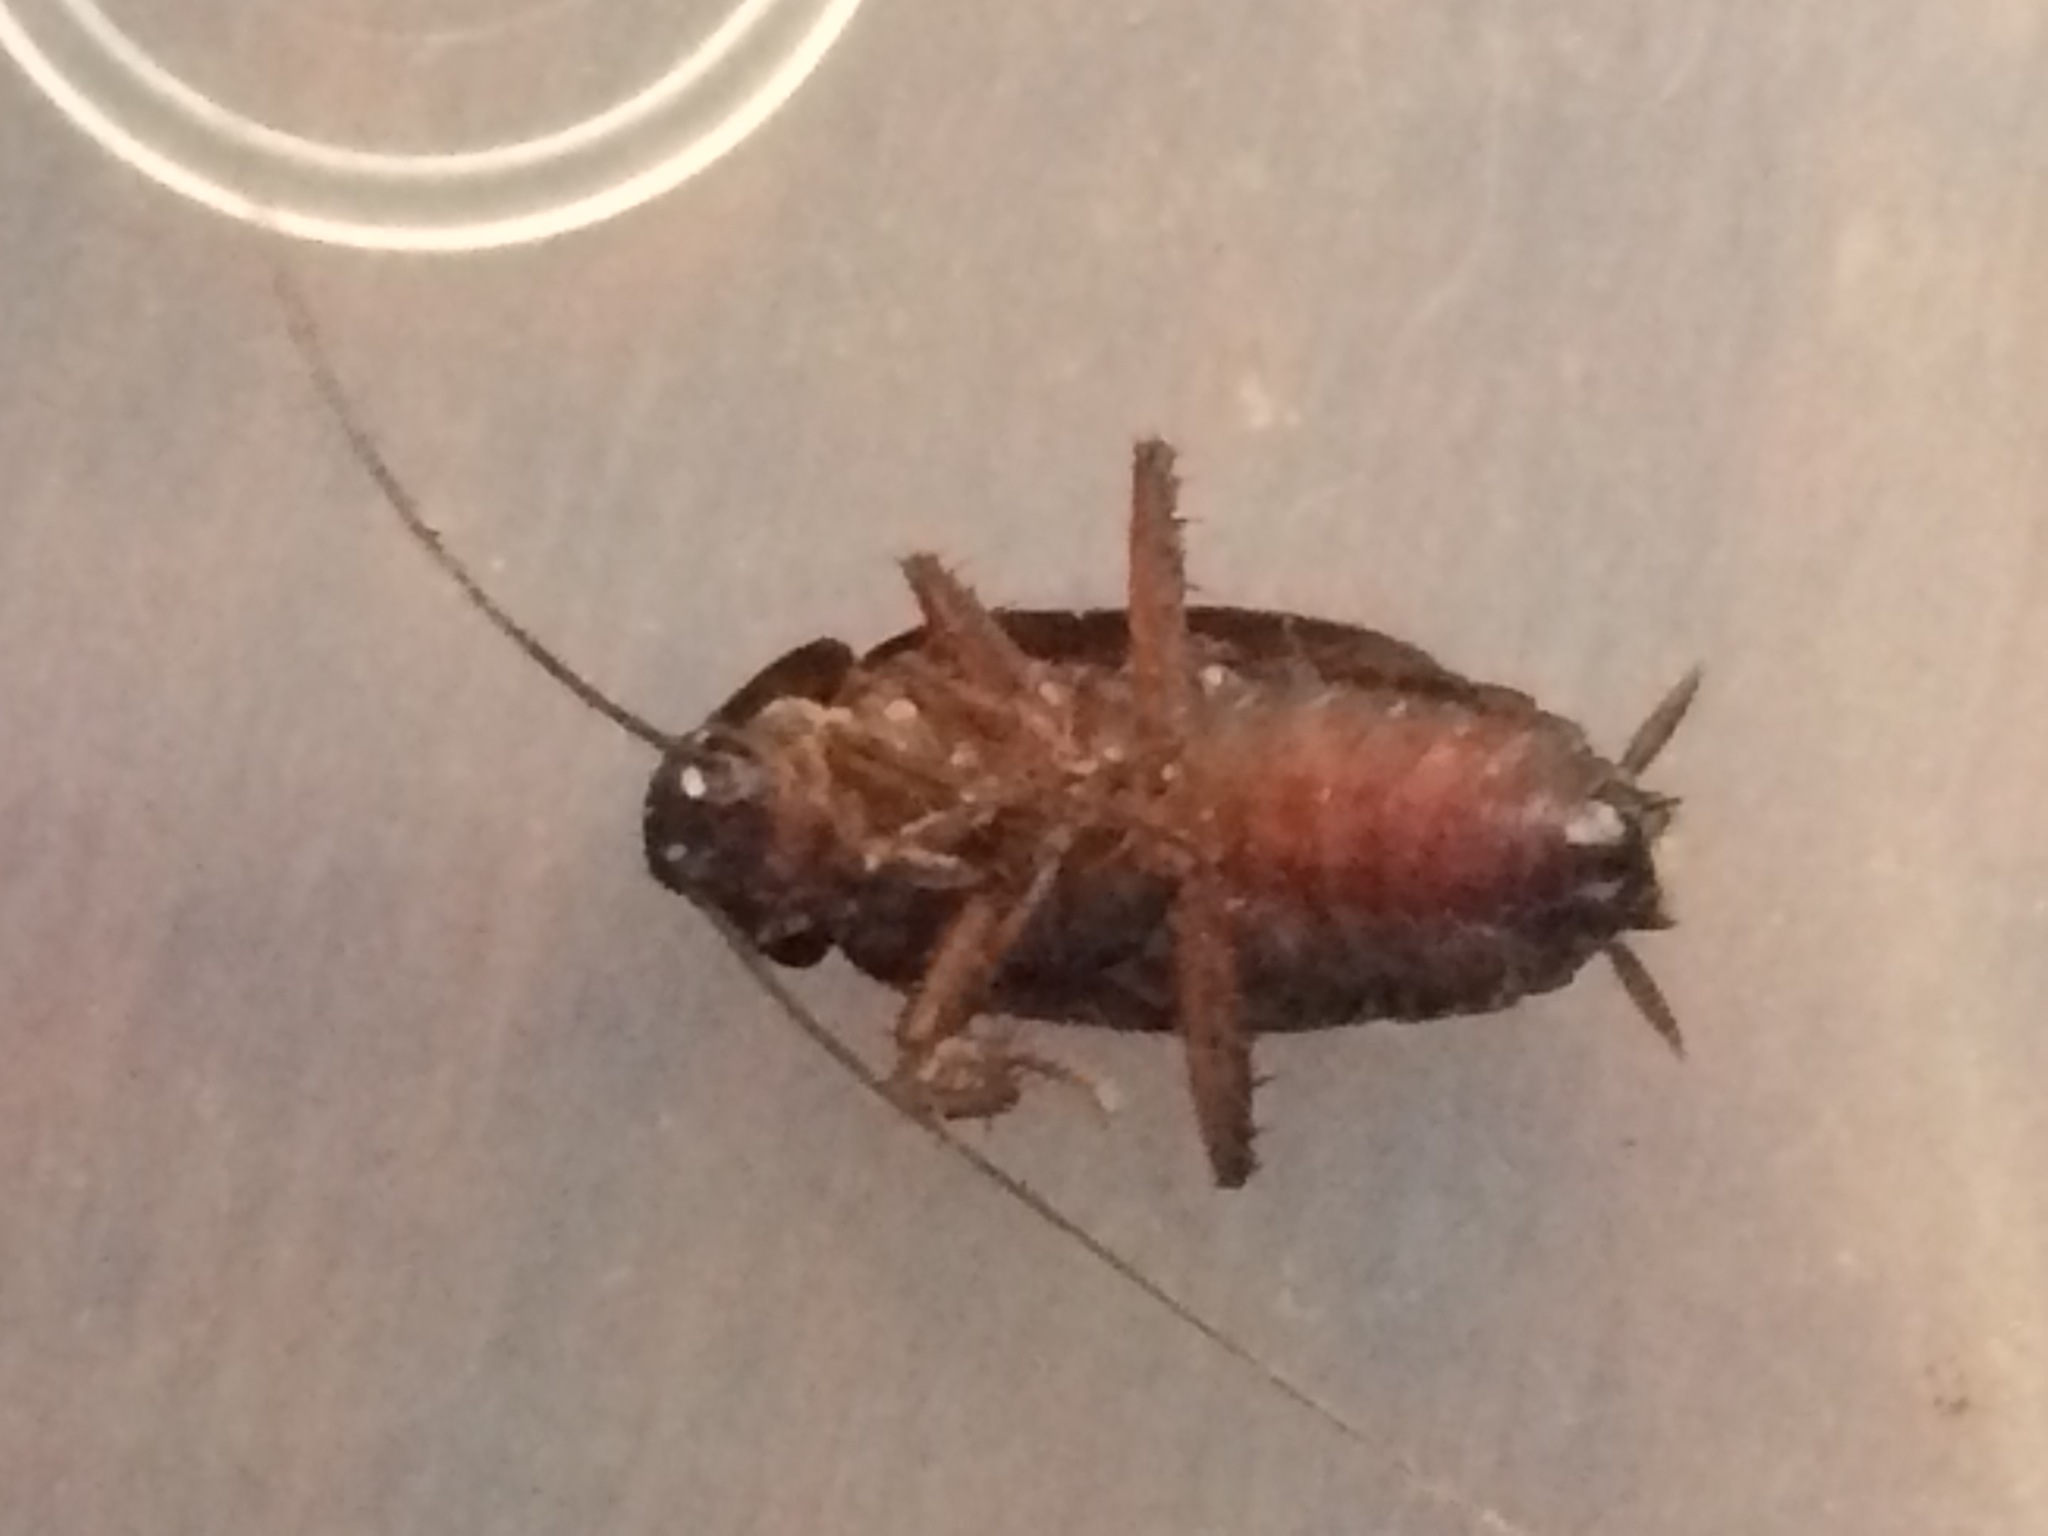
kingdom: Animalia
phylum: Arthropoda
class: Insecta
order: Blattodea
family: Blattidae
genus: Blatta
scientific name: Blatta orientalis
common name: Oriental cockroach
